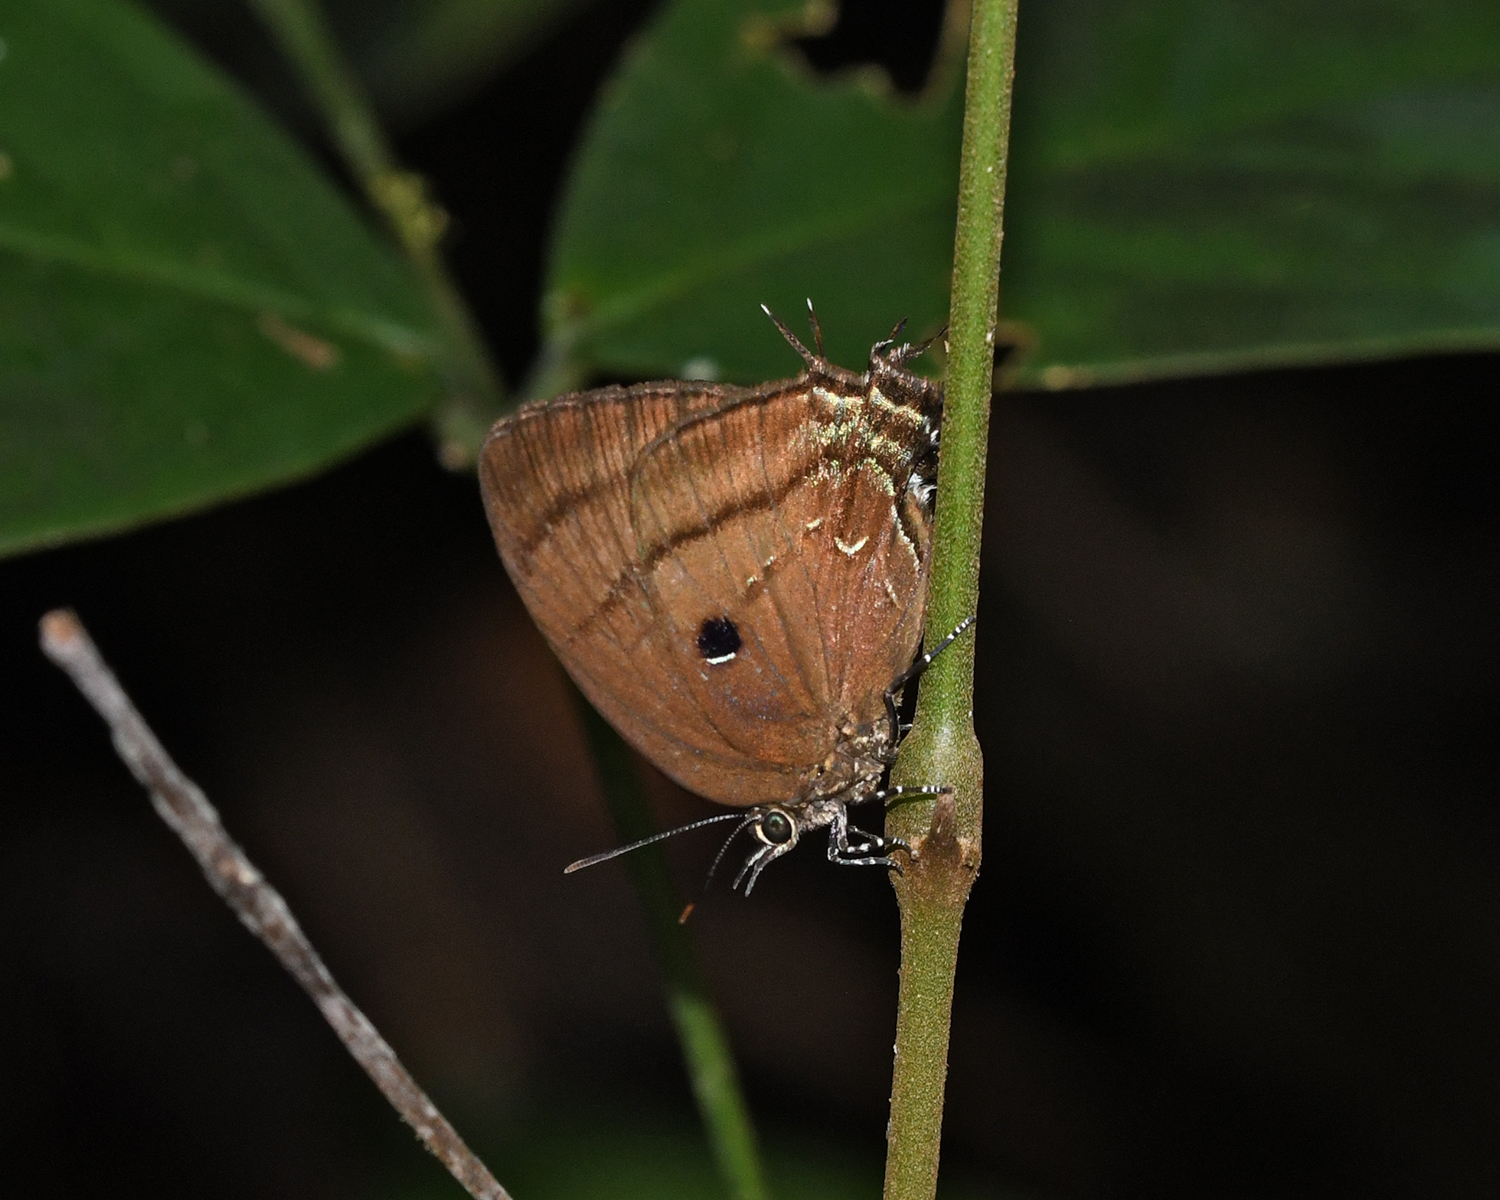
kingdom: Animalia
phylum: Arthropoda
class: Insecta
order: Lepidoptera
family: Lycaenidae
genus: Denivia
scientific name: Denivia hemon
